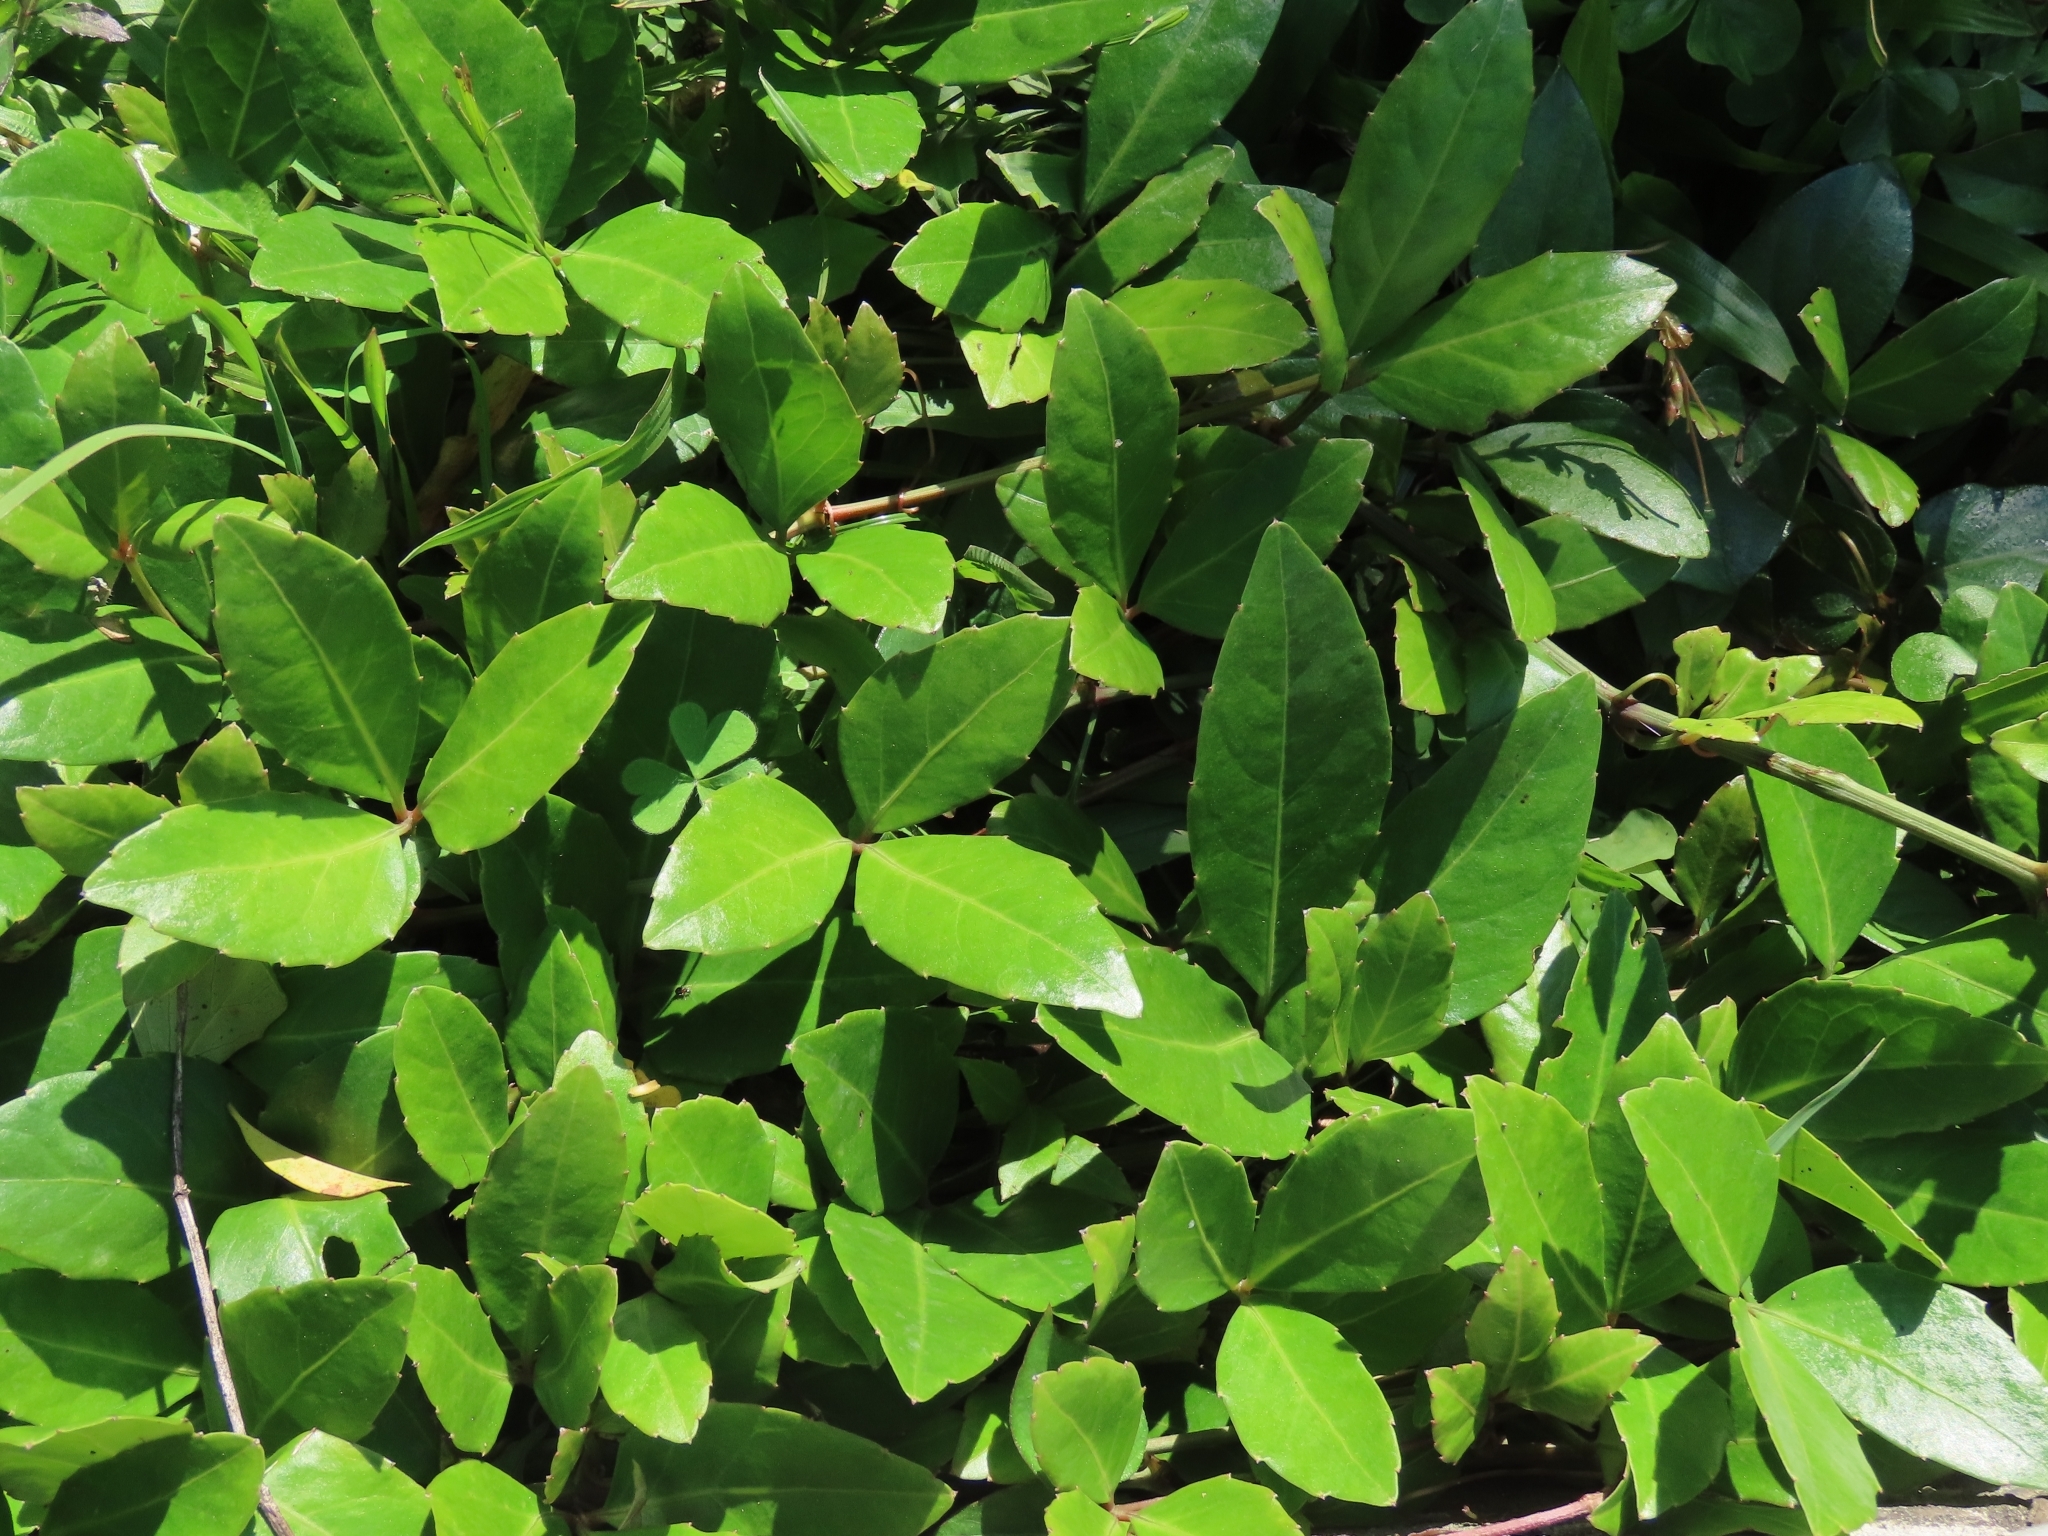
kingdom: Plantae
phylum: Tracheophyta
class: Magnoliopsida
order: Vitales
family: Vitaceae
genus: Tetrastigma
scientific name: Tetrastigma formosanum
